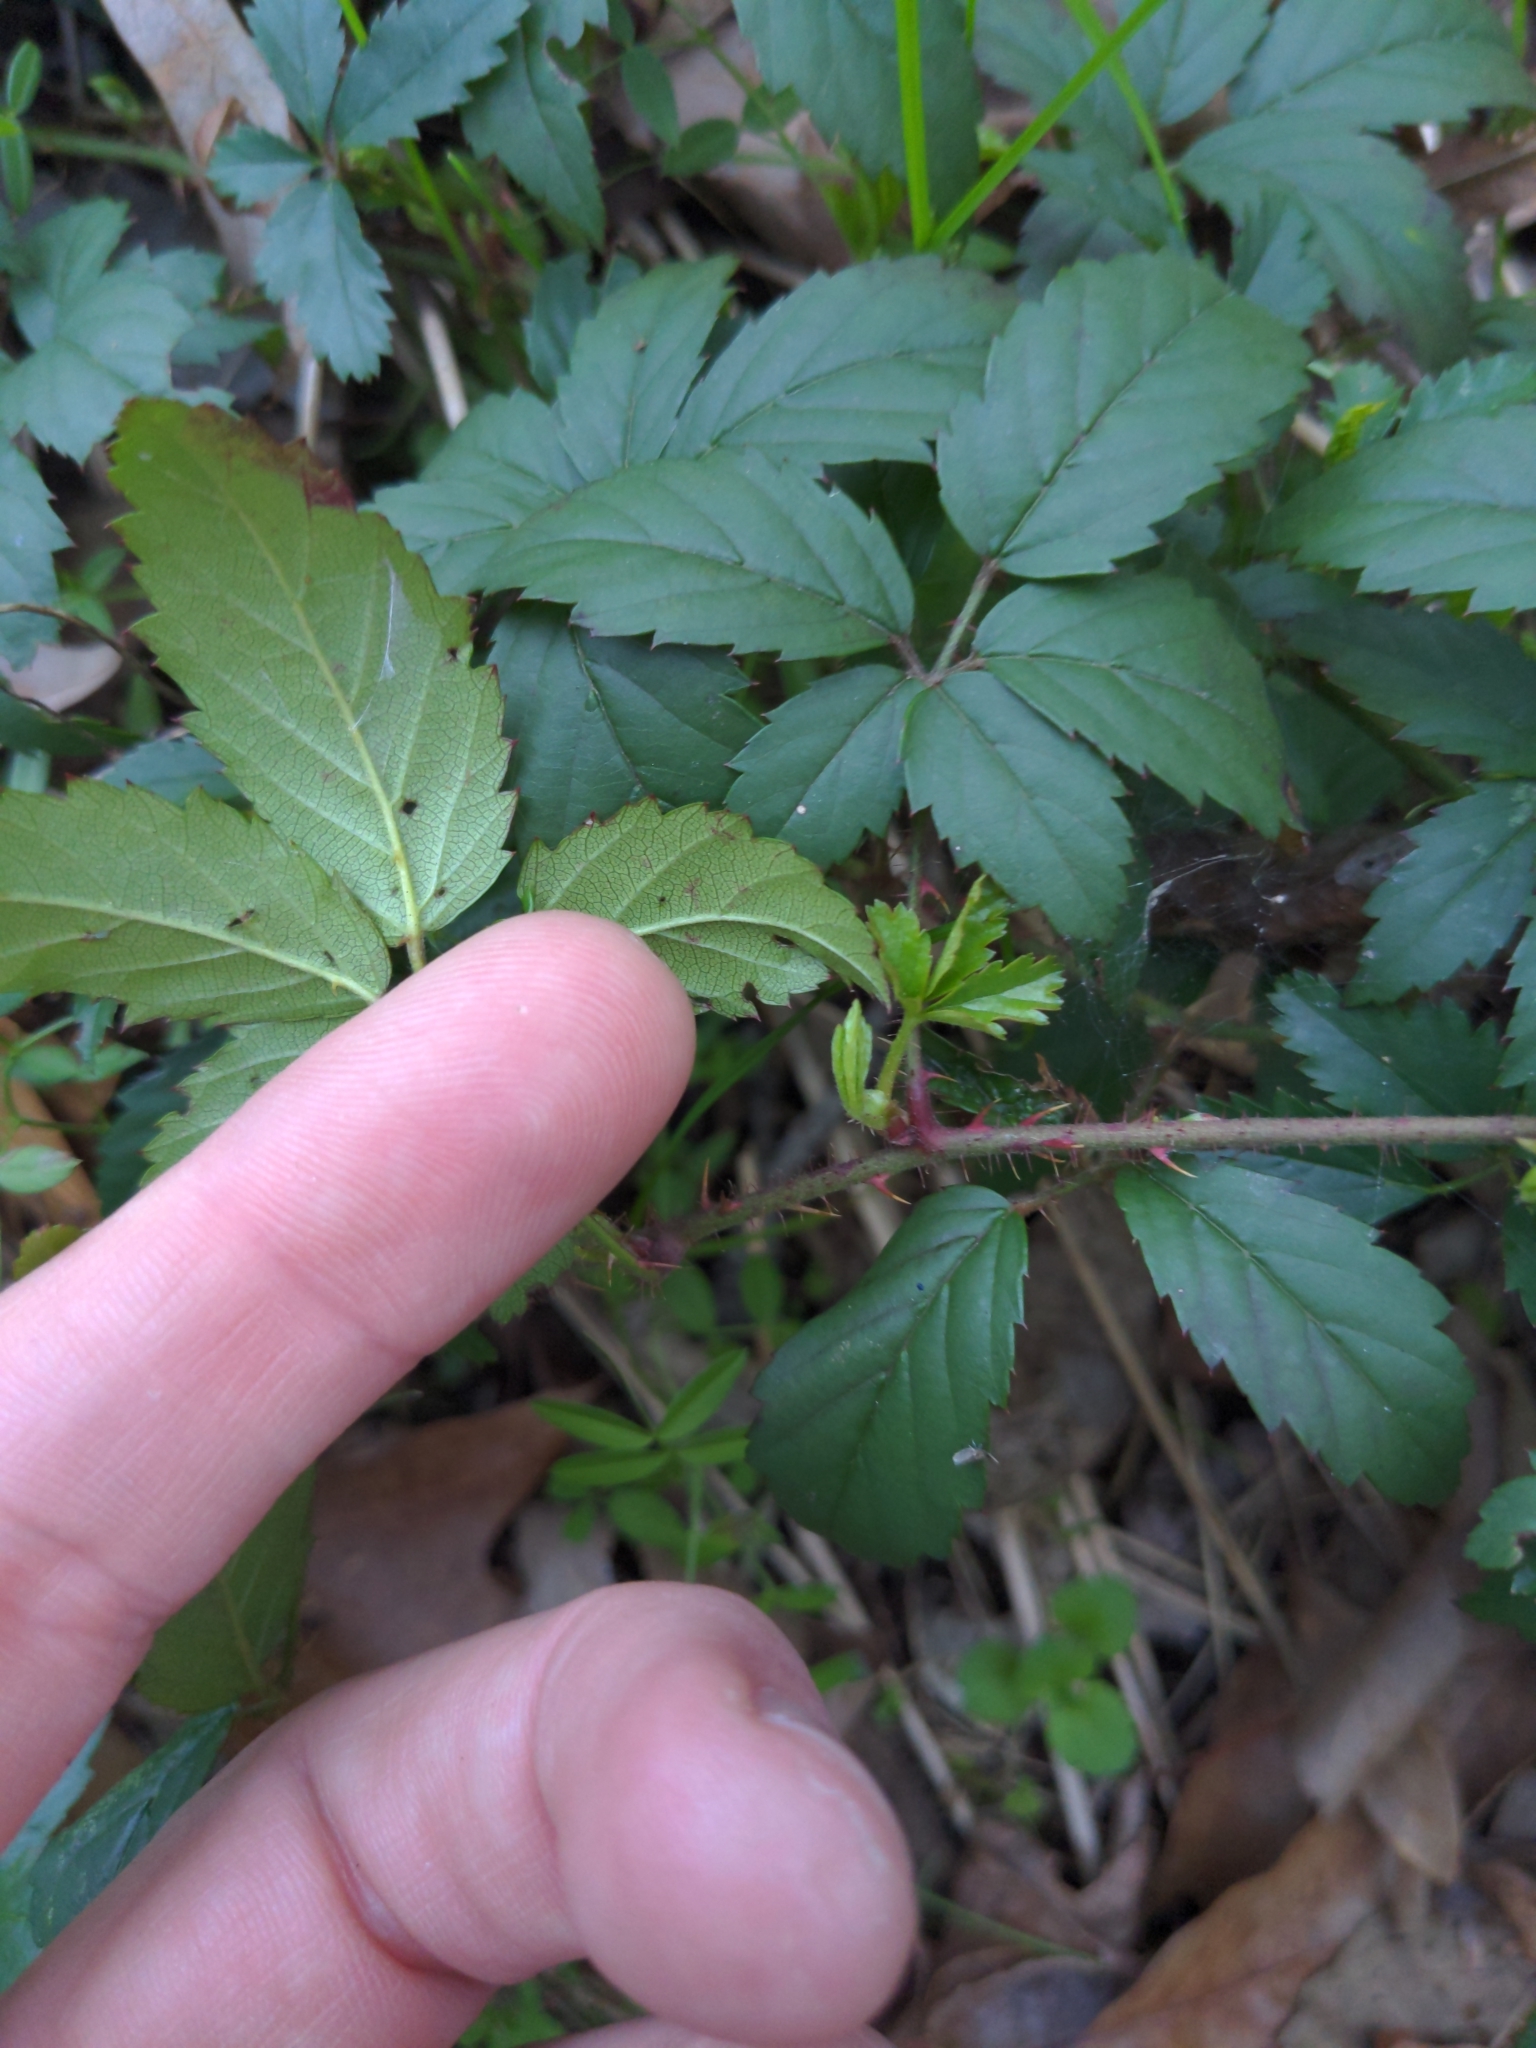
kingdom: Plantae
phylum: Tracheophyta
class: Magnoliopsida
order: Rosales
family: Rosaceae
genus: Rubus
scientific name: Rubus trivialis
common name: Southern dewberry
